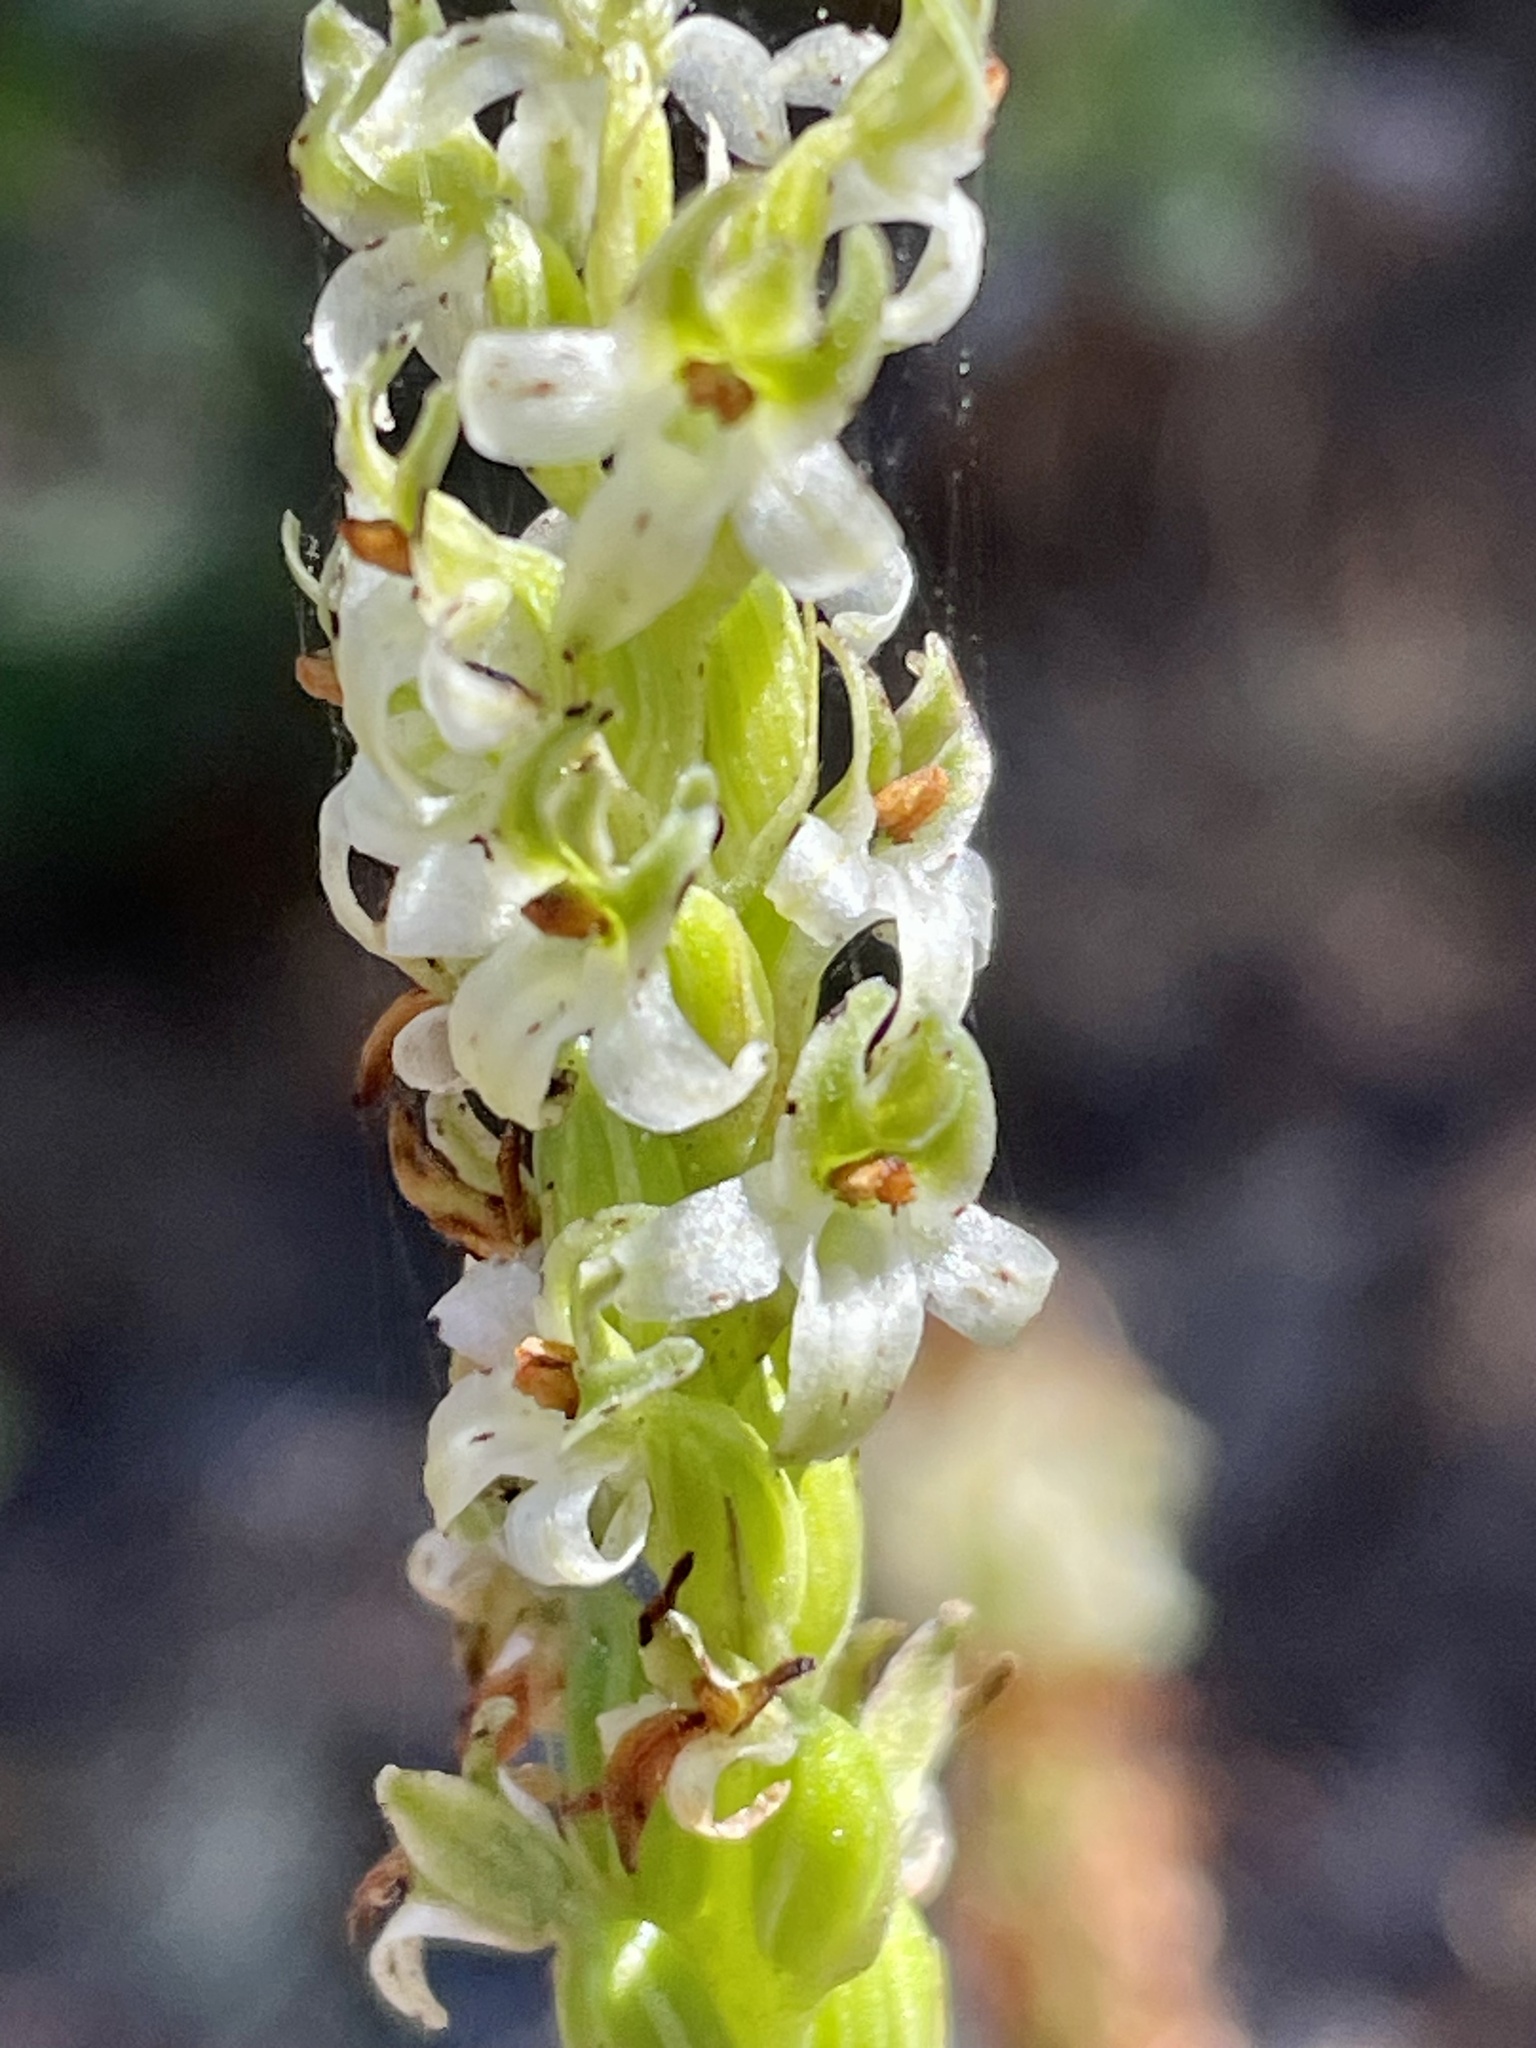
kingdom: Plantae
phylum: Tracheophyta
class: Liliopsida
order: Asparagales
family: Orchidaceae
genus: Platanthera
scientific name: Platanthera yadonii
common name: Yadon’s piperia
